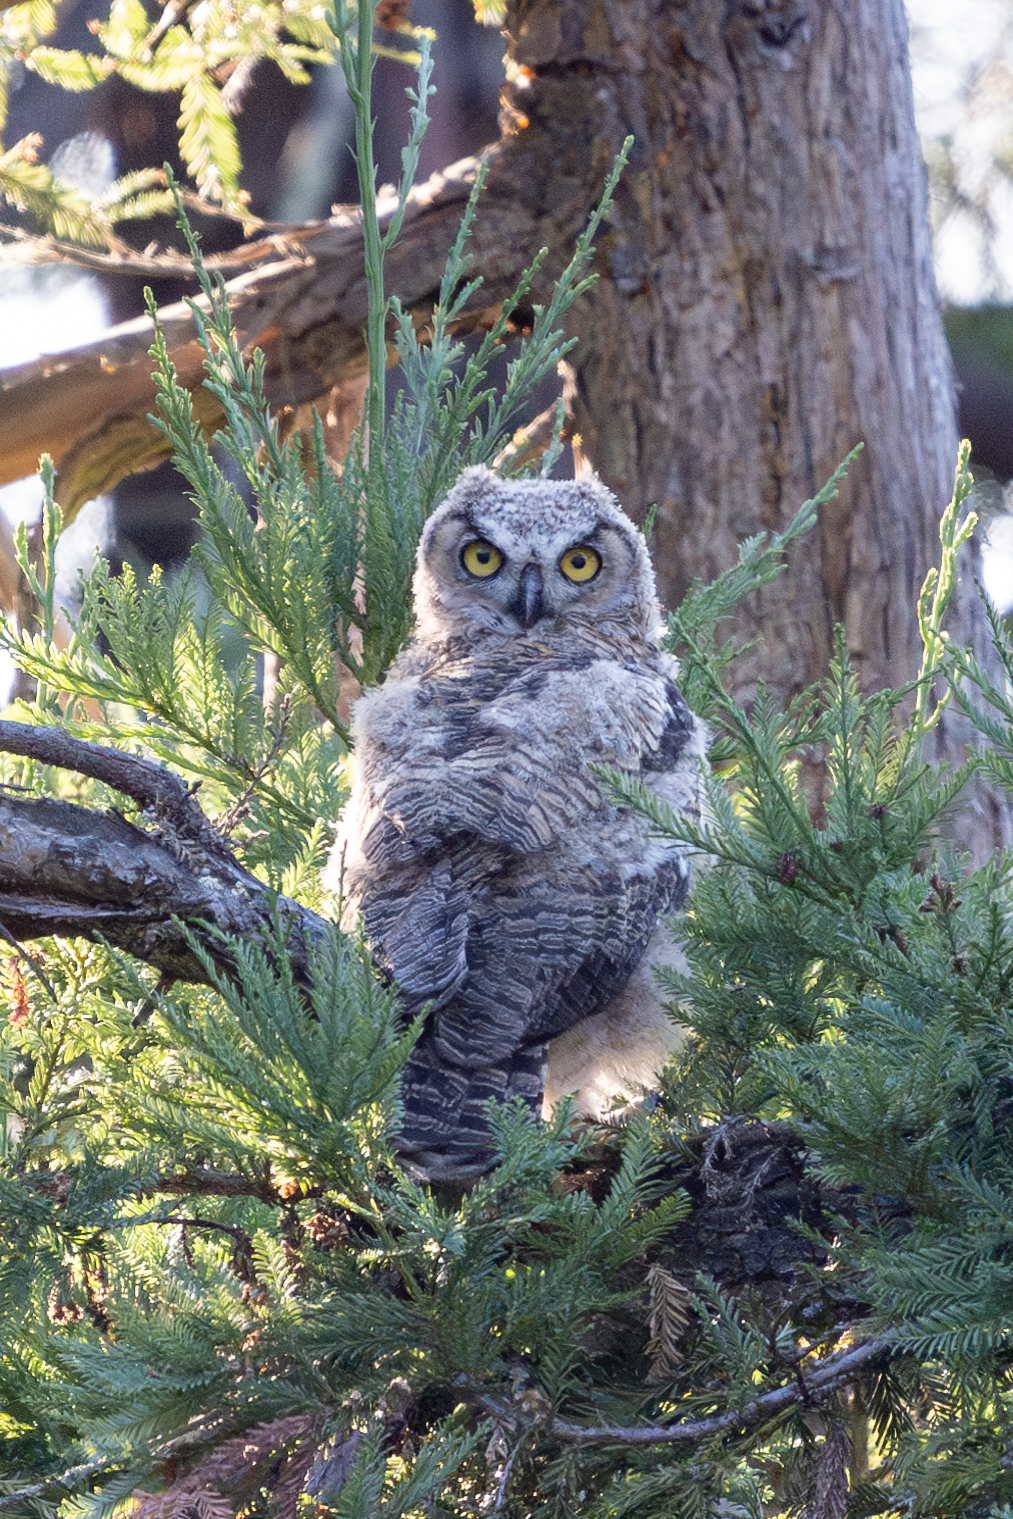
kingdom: Animalia
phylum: Chordata
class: Aves
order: Strigiformes
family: Strigidae
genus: Bubo
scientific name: Bubo virginianus
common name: Great horned owl
